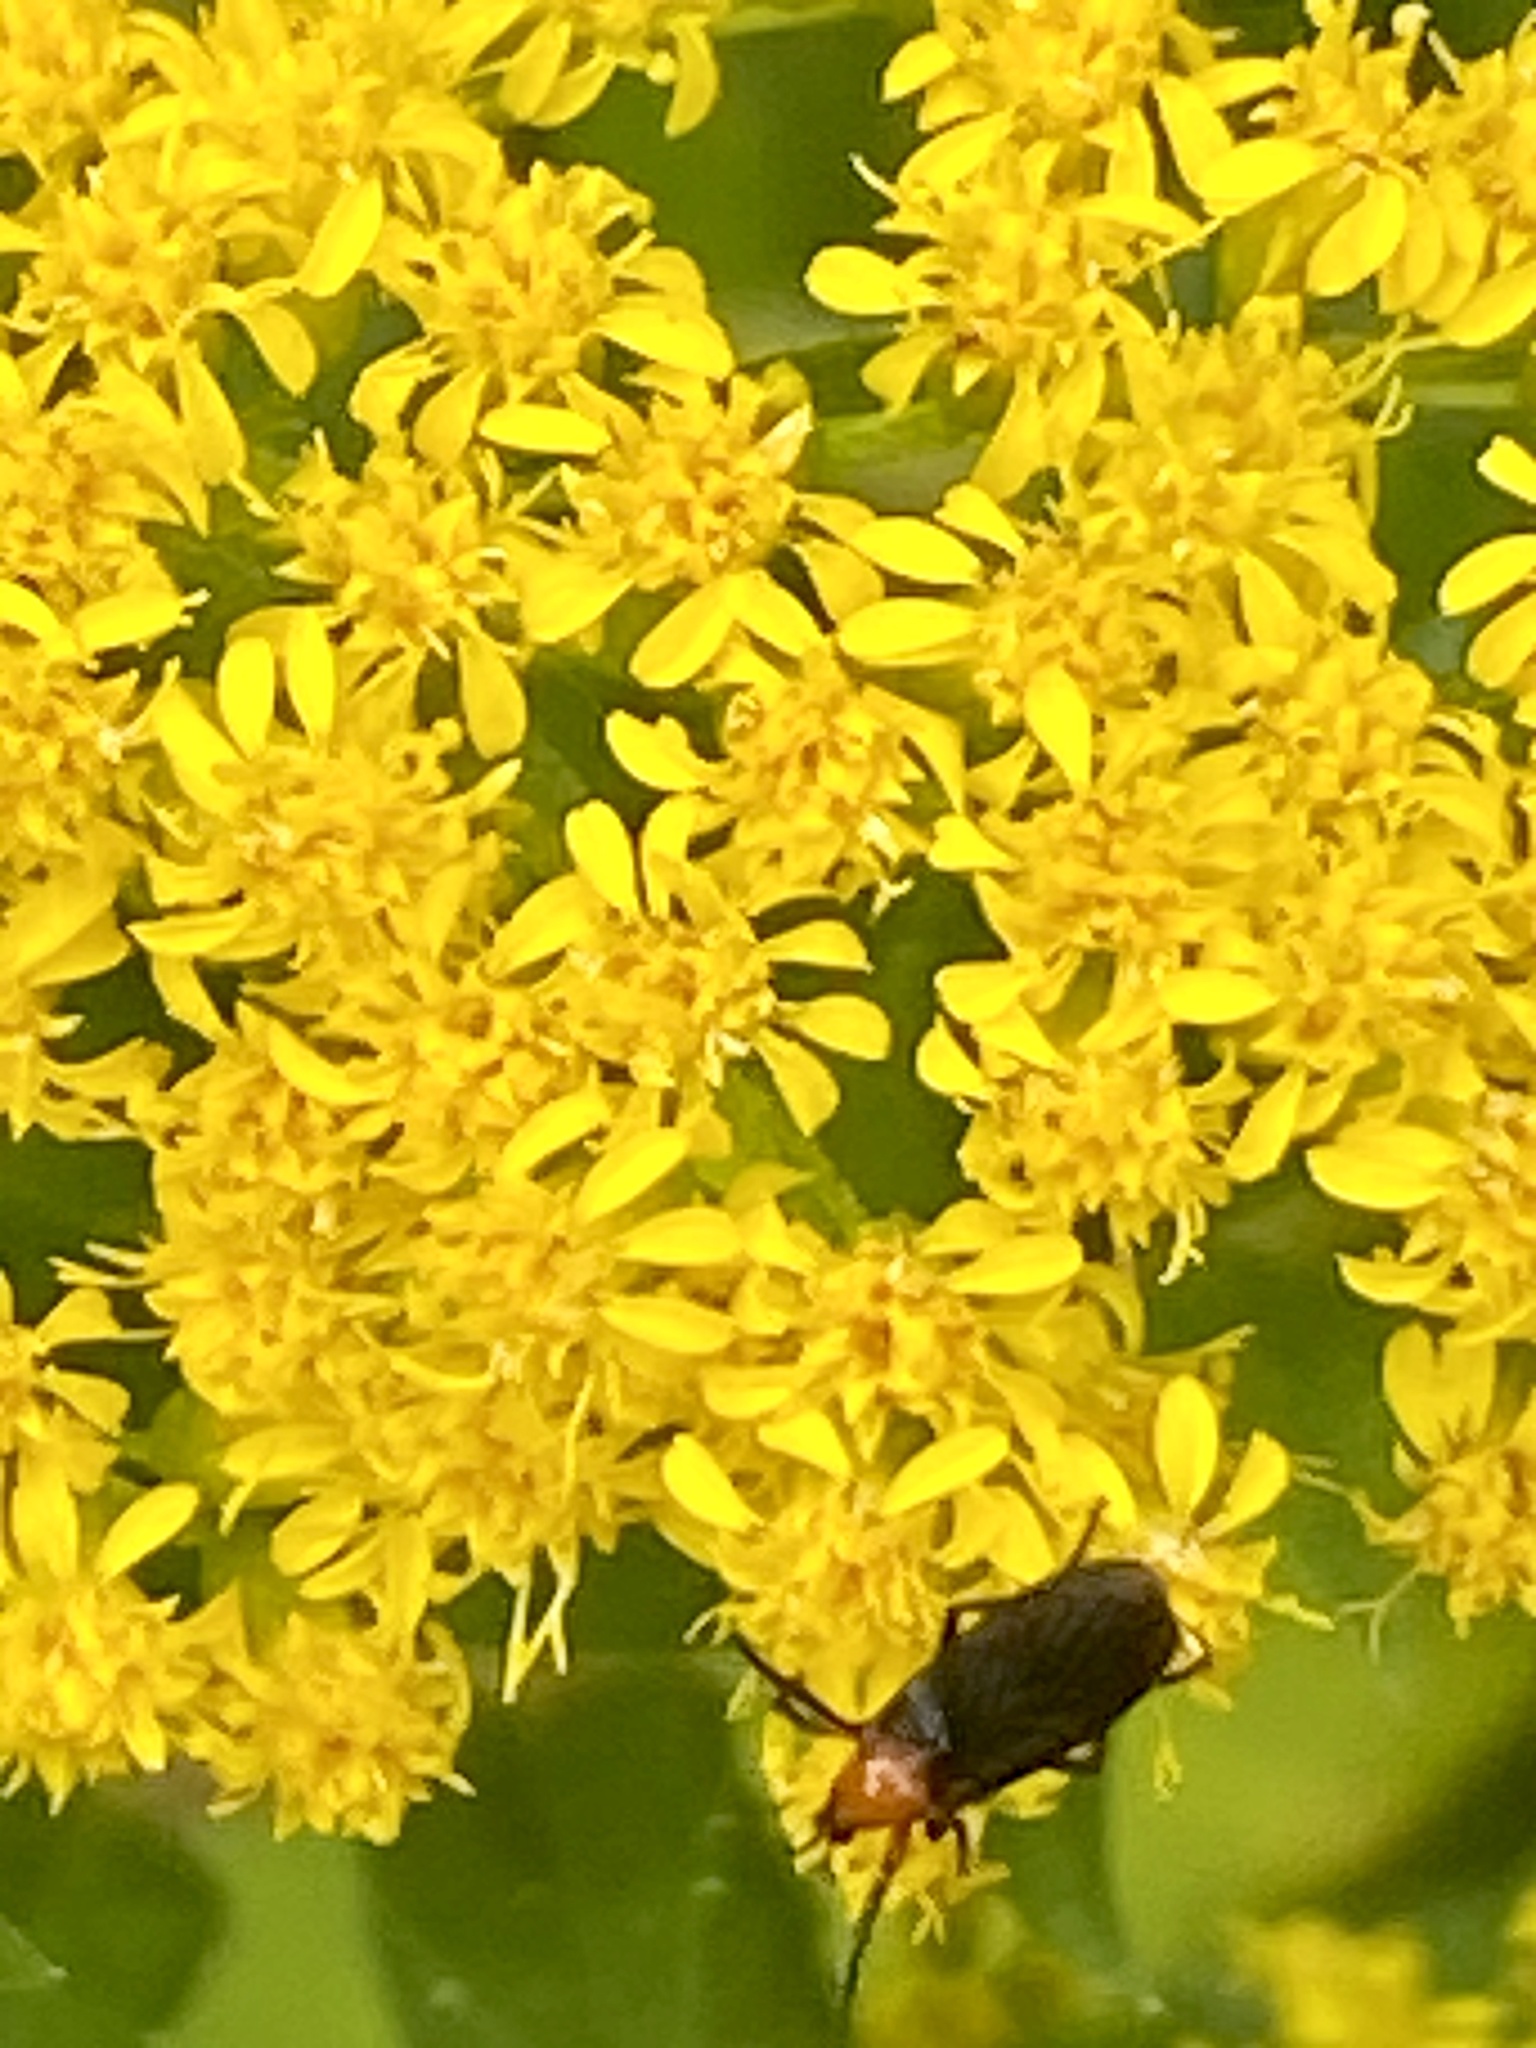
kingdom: Animalia
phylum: Arthropoda
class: Insecta
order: Diptera
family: Bibionidae
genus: Dilophus
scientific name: Dilophus spinipes
